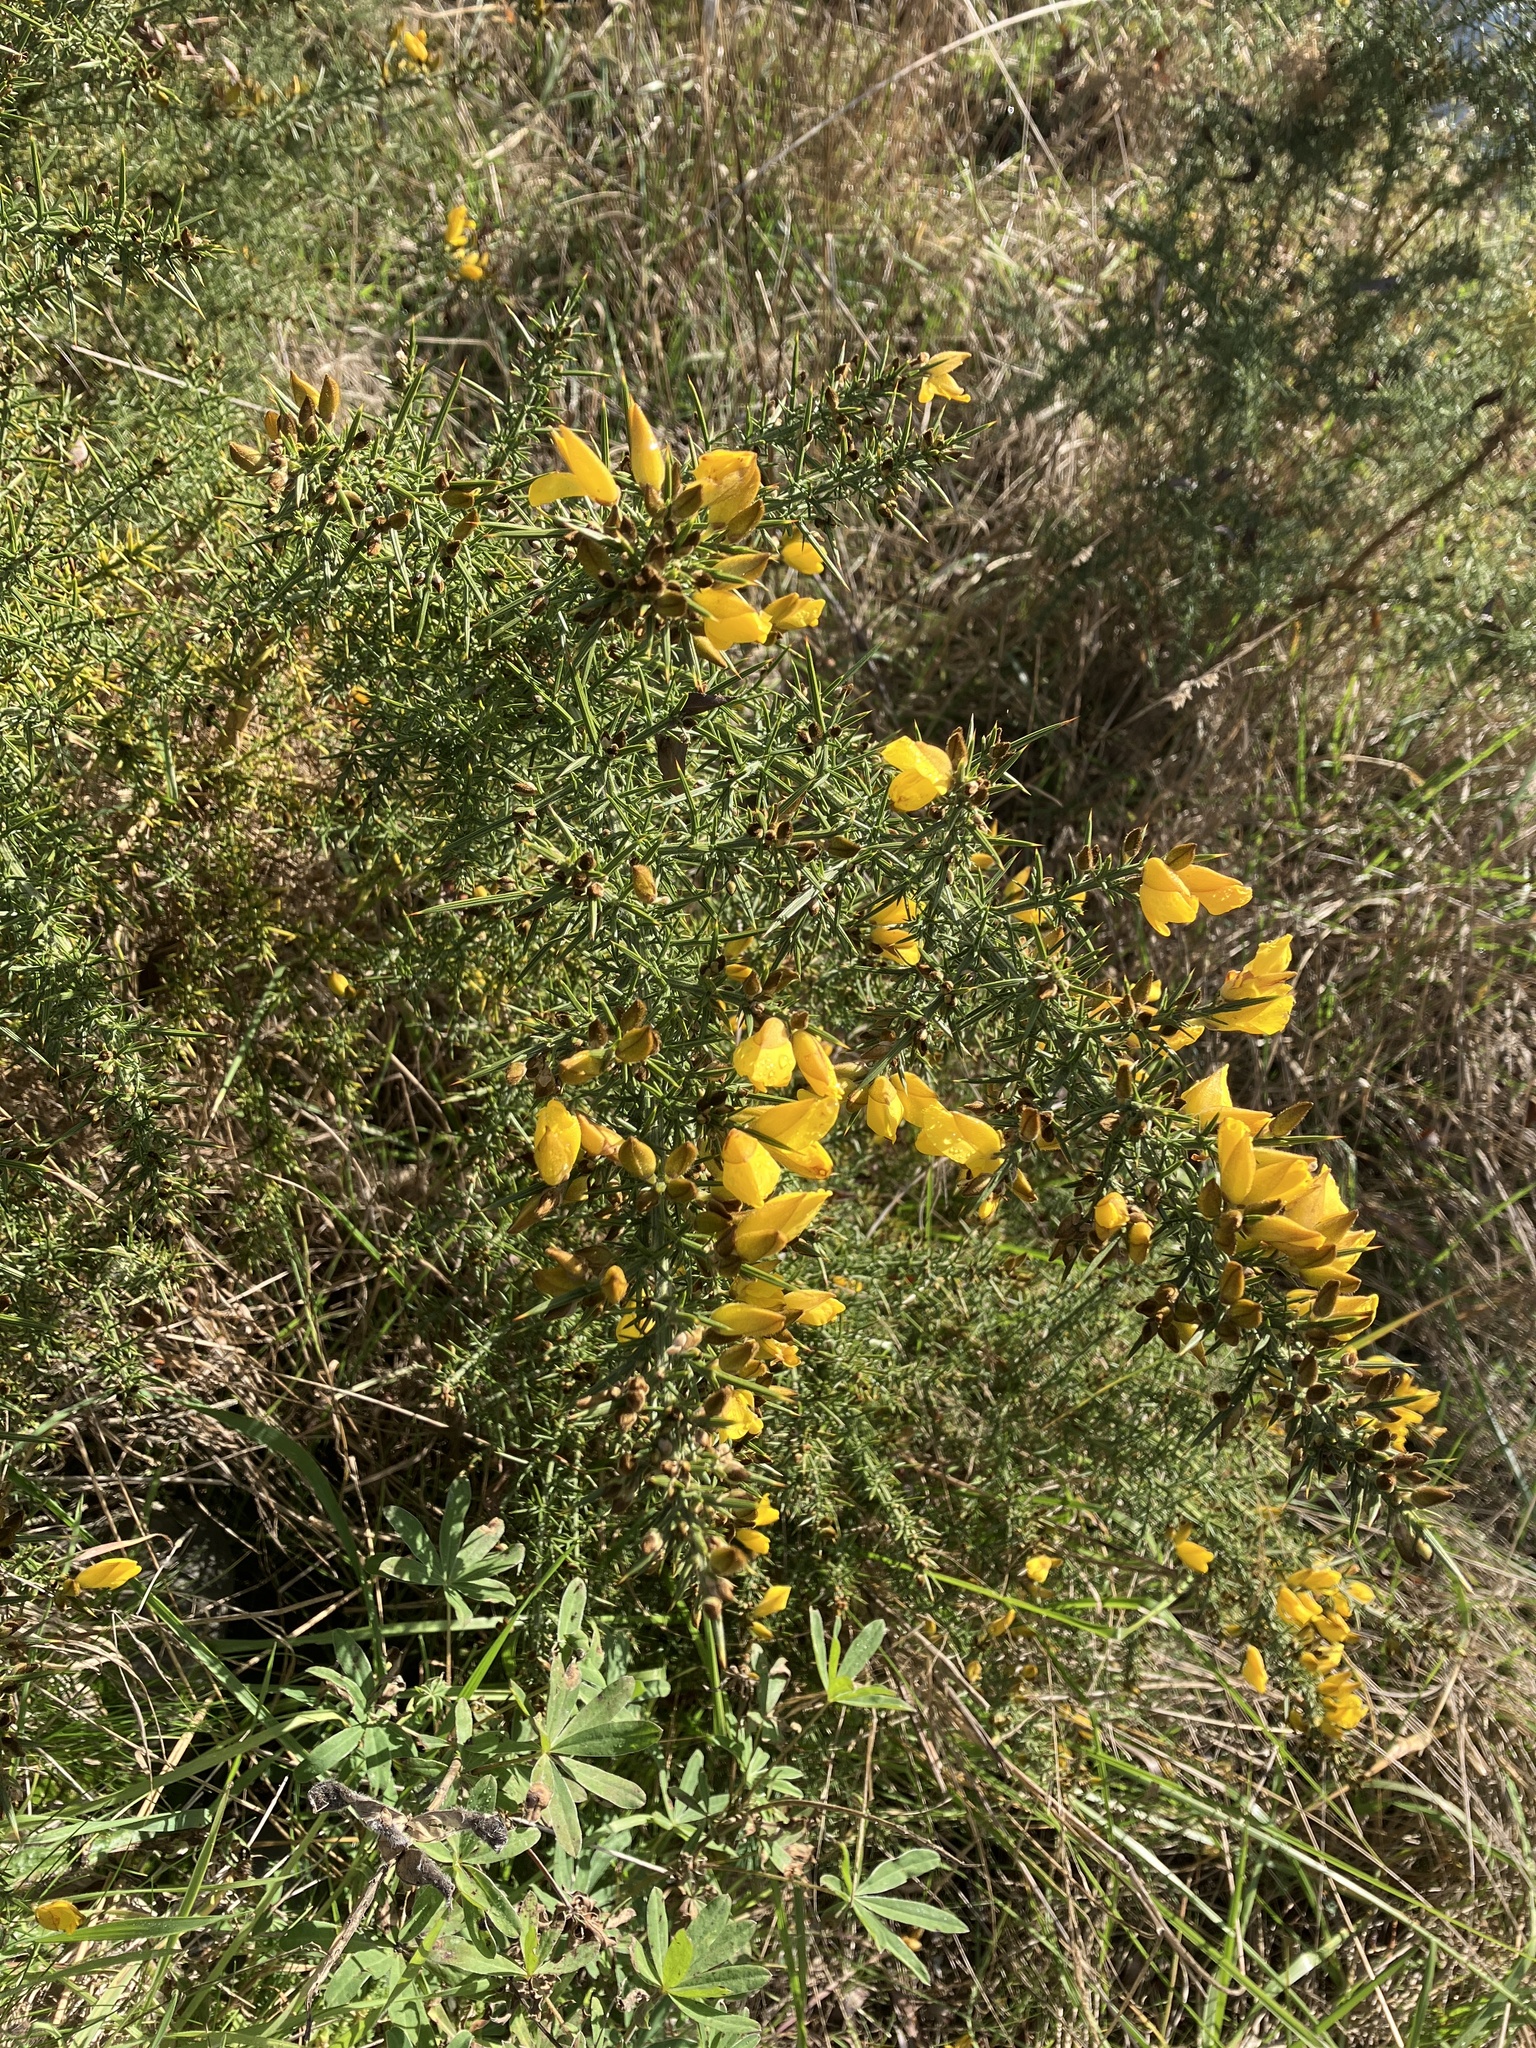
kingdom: Plantae
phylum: Tracheophyta
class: Magnoliopsida
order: Fabales
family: Fabaceae
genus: Ulex
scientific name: Ulex europaeus
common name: Common gorse
